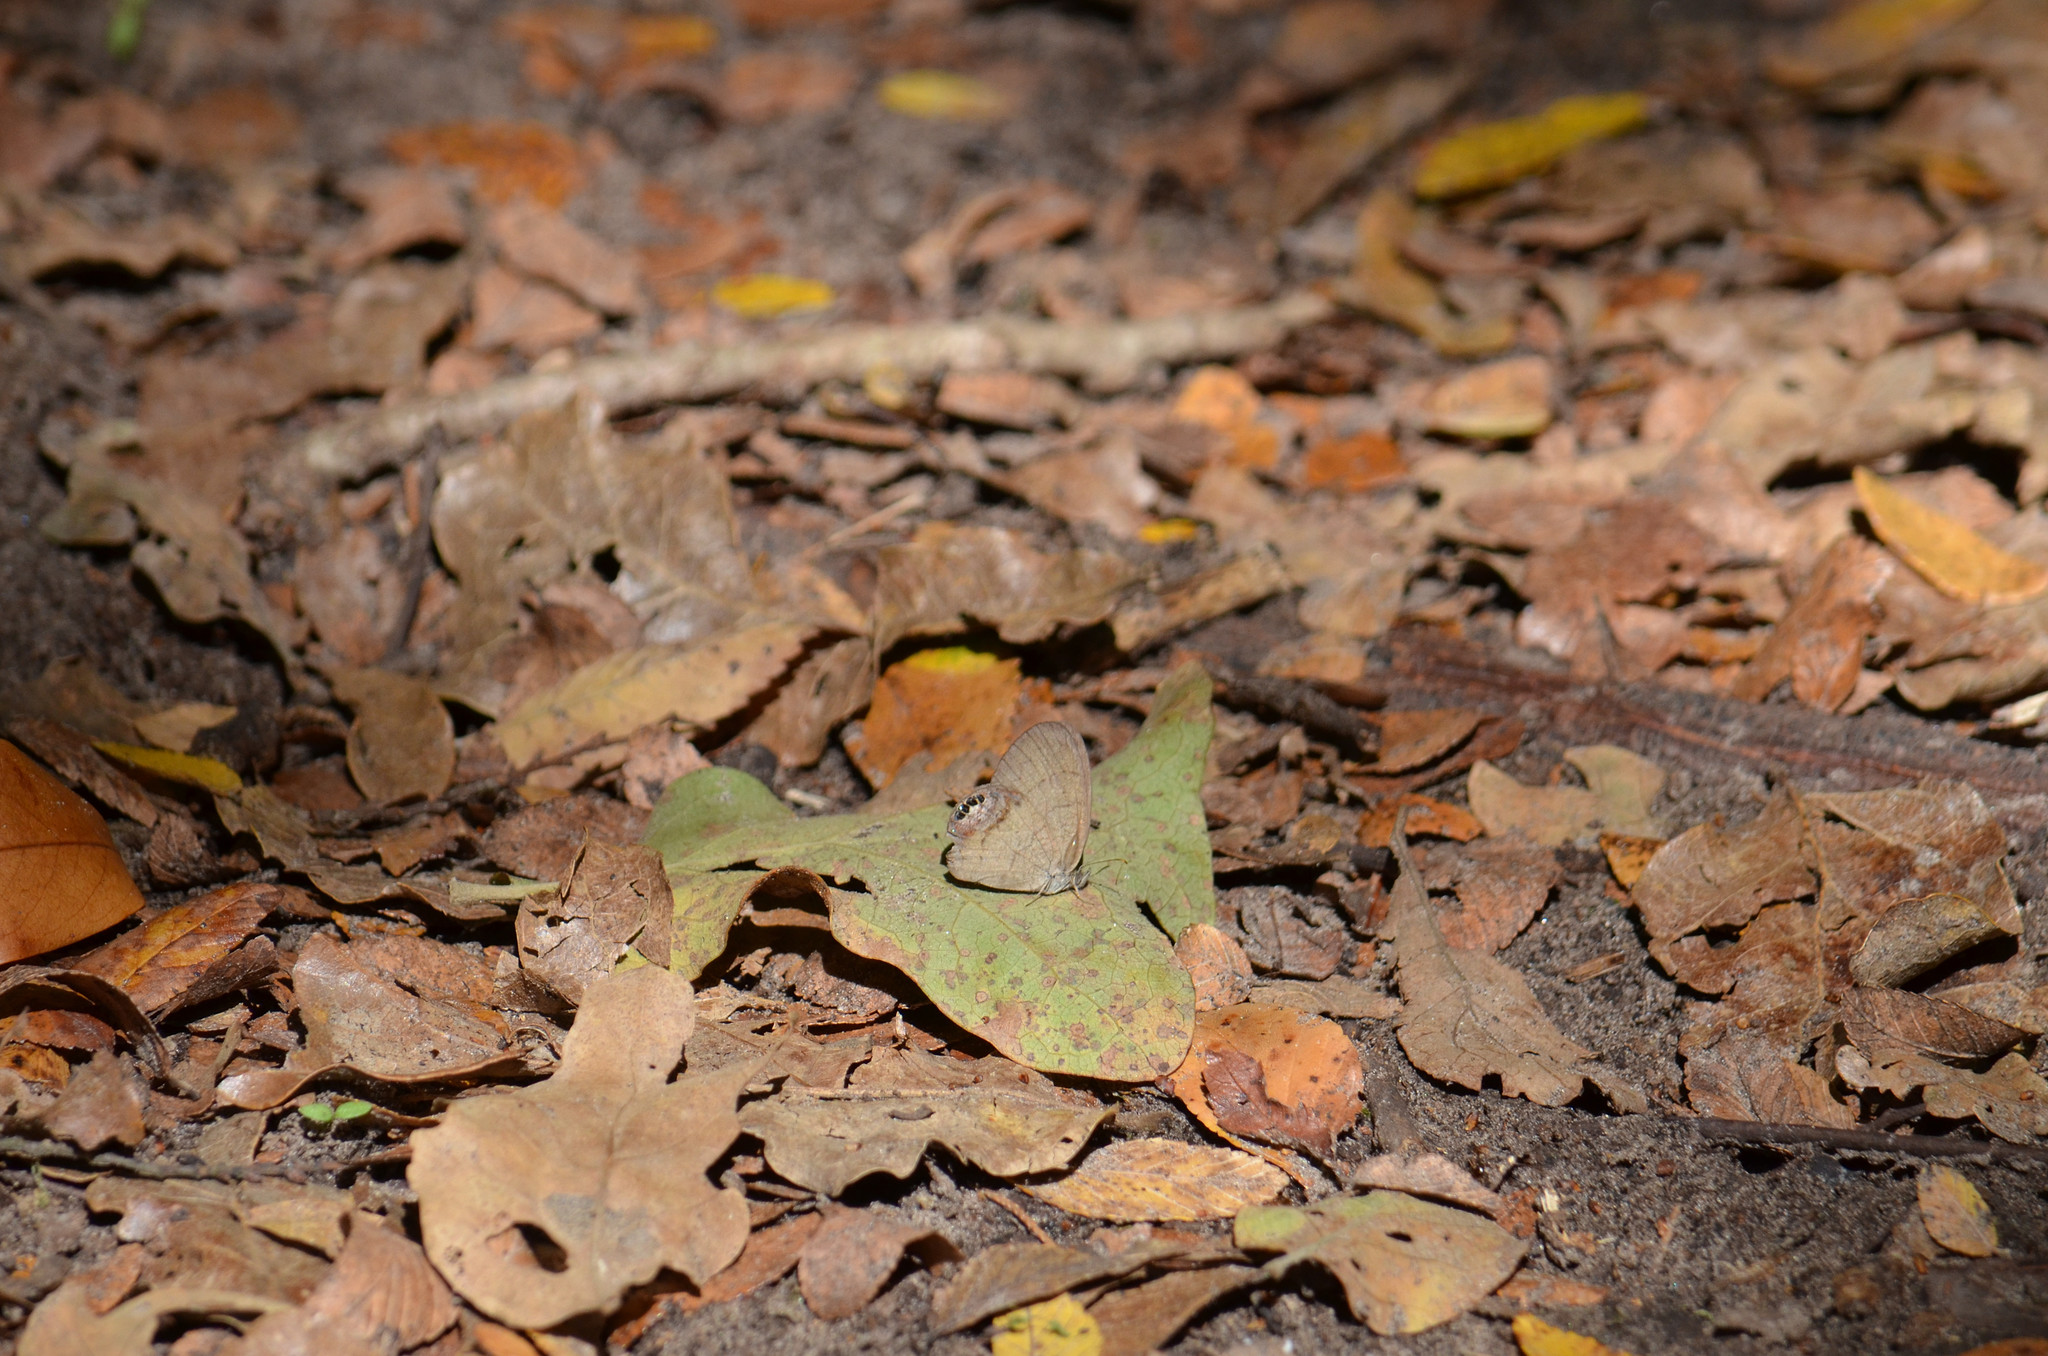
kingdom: Animalia
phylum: Arthropoda
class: Insecta
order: Lepidoptera
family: Nymphalidae
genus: Euptychia
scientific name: Euptychia cornelius
